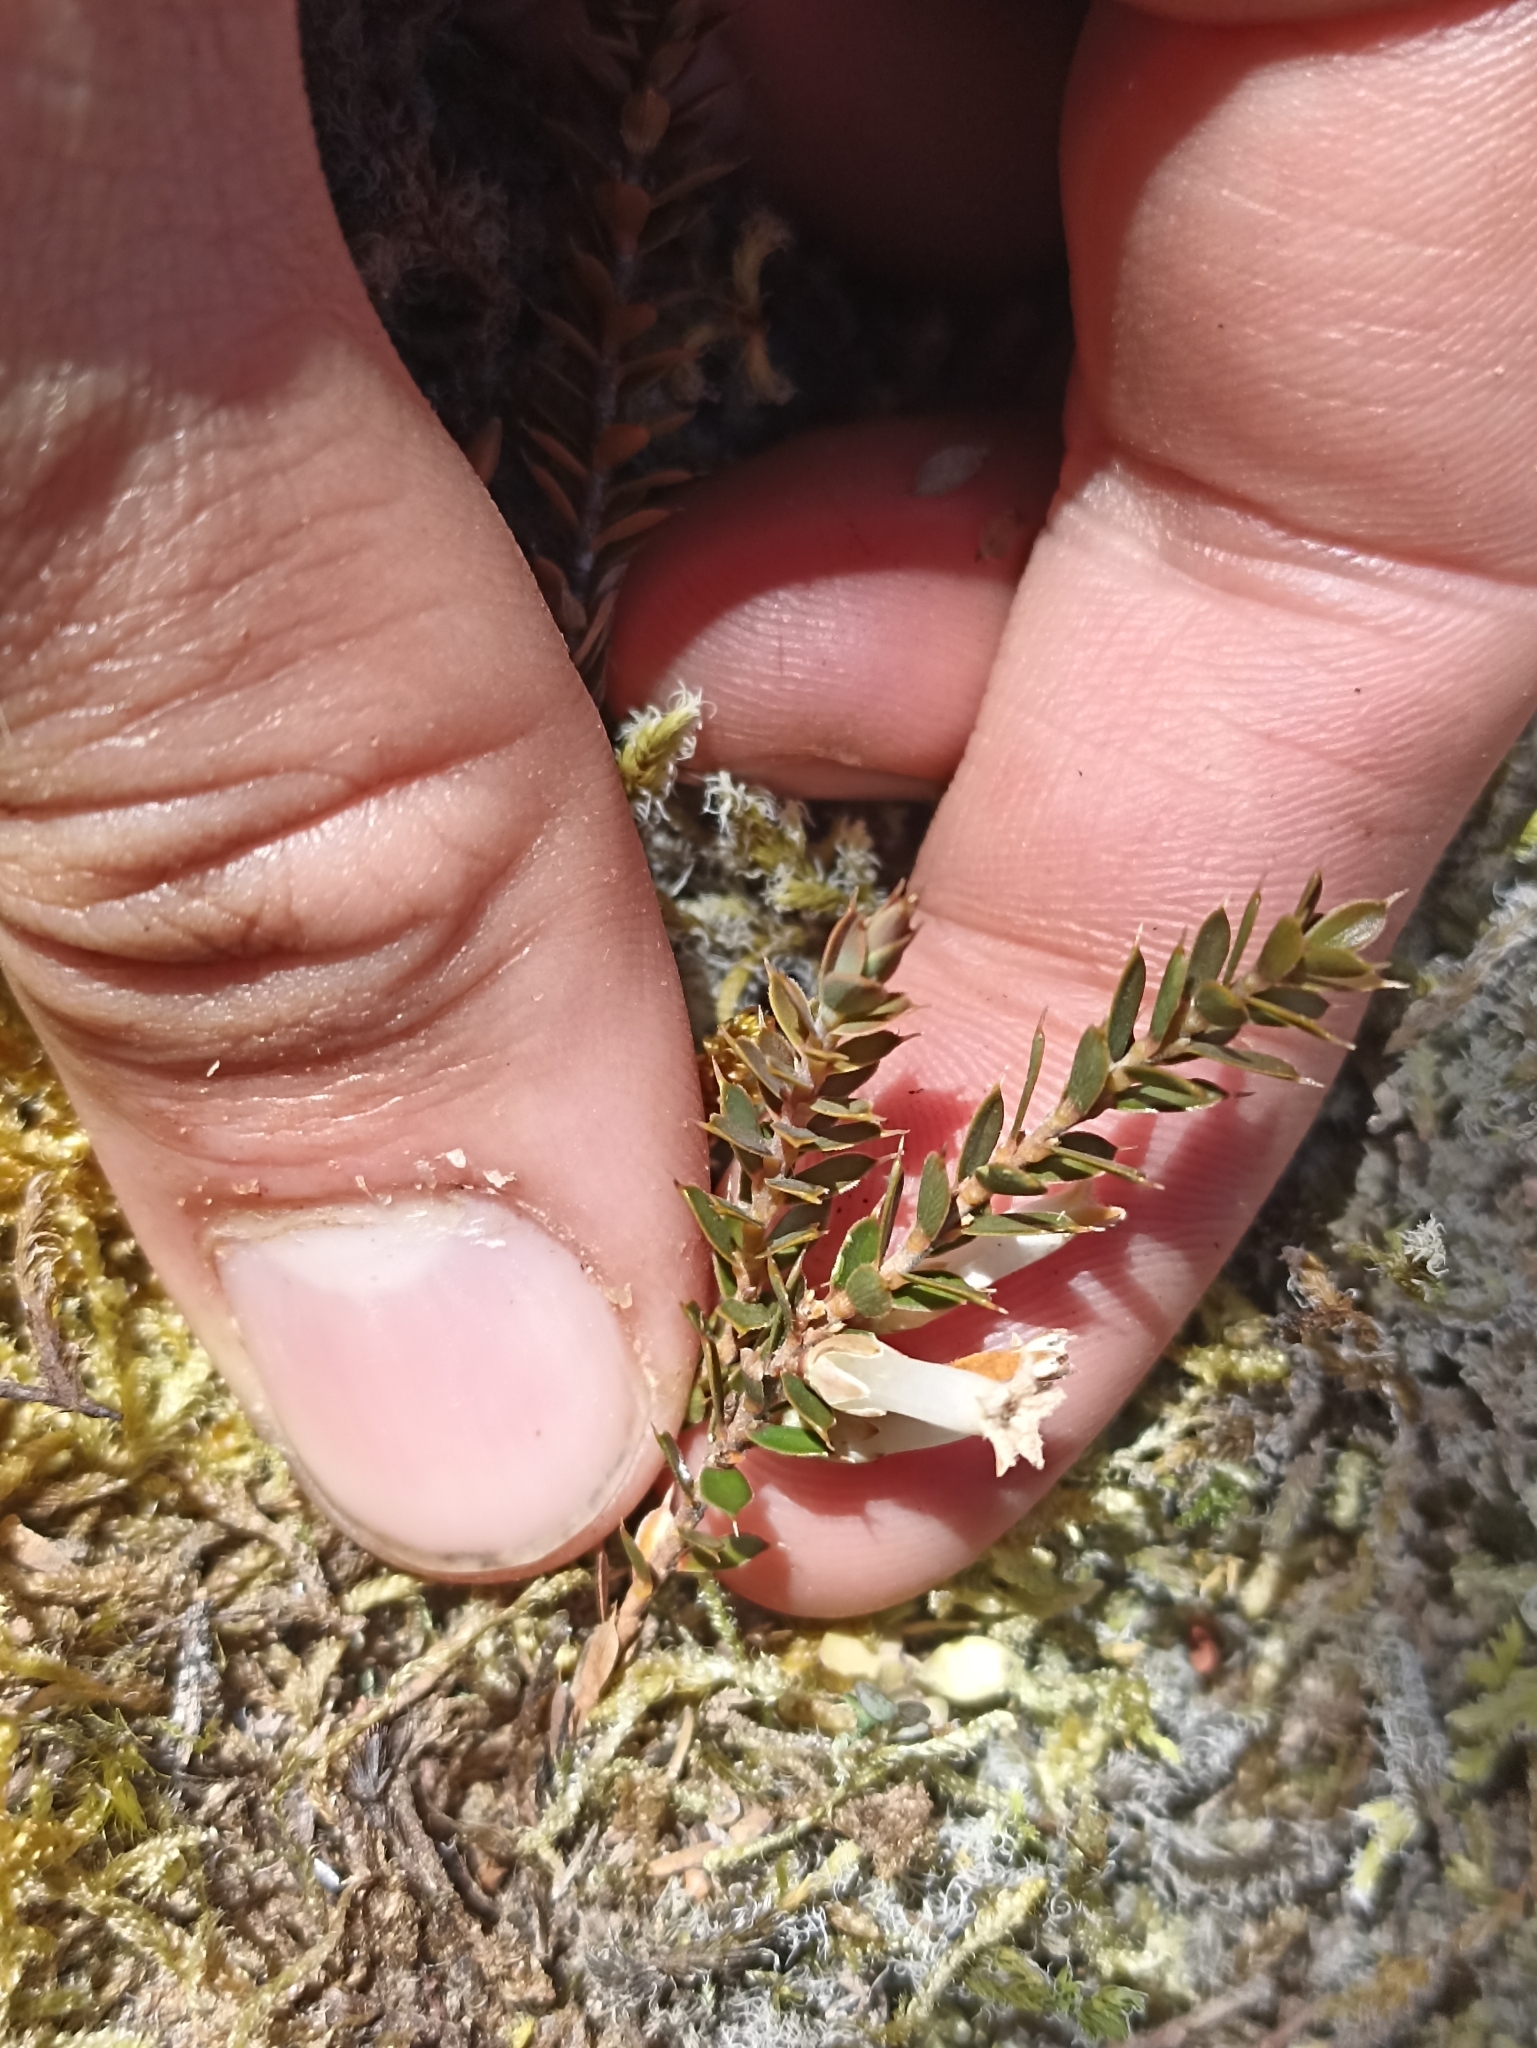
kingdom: Plantae
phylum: Tracheophyta
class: Magnoliopsida
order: Ericales
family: Ericaceae
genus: Styphelia
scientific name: Styphelia nesophila
